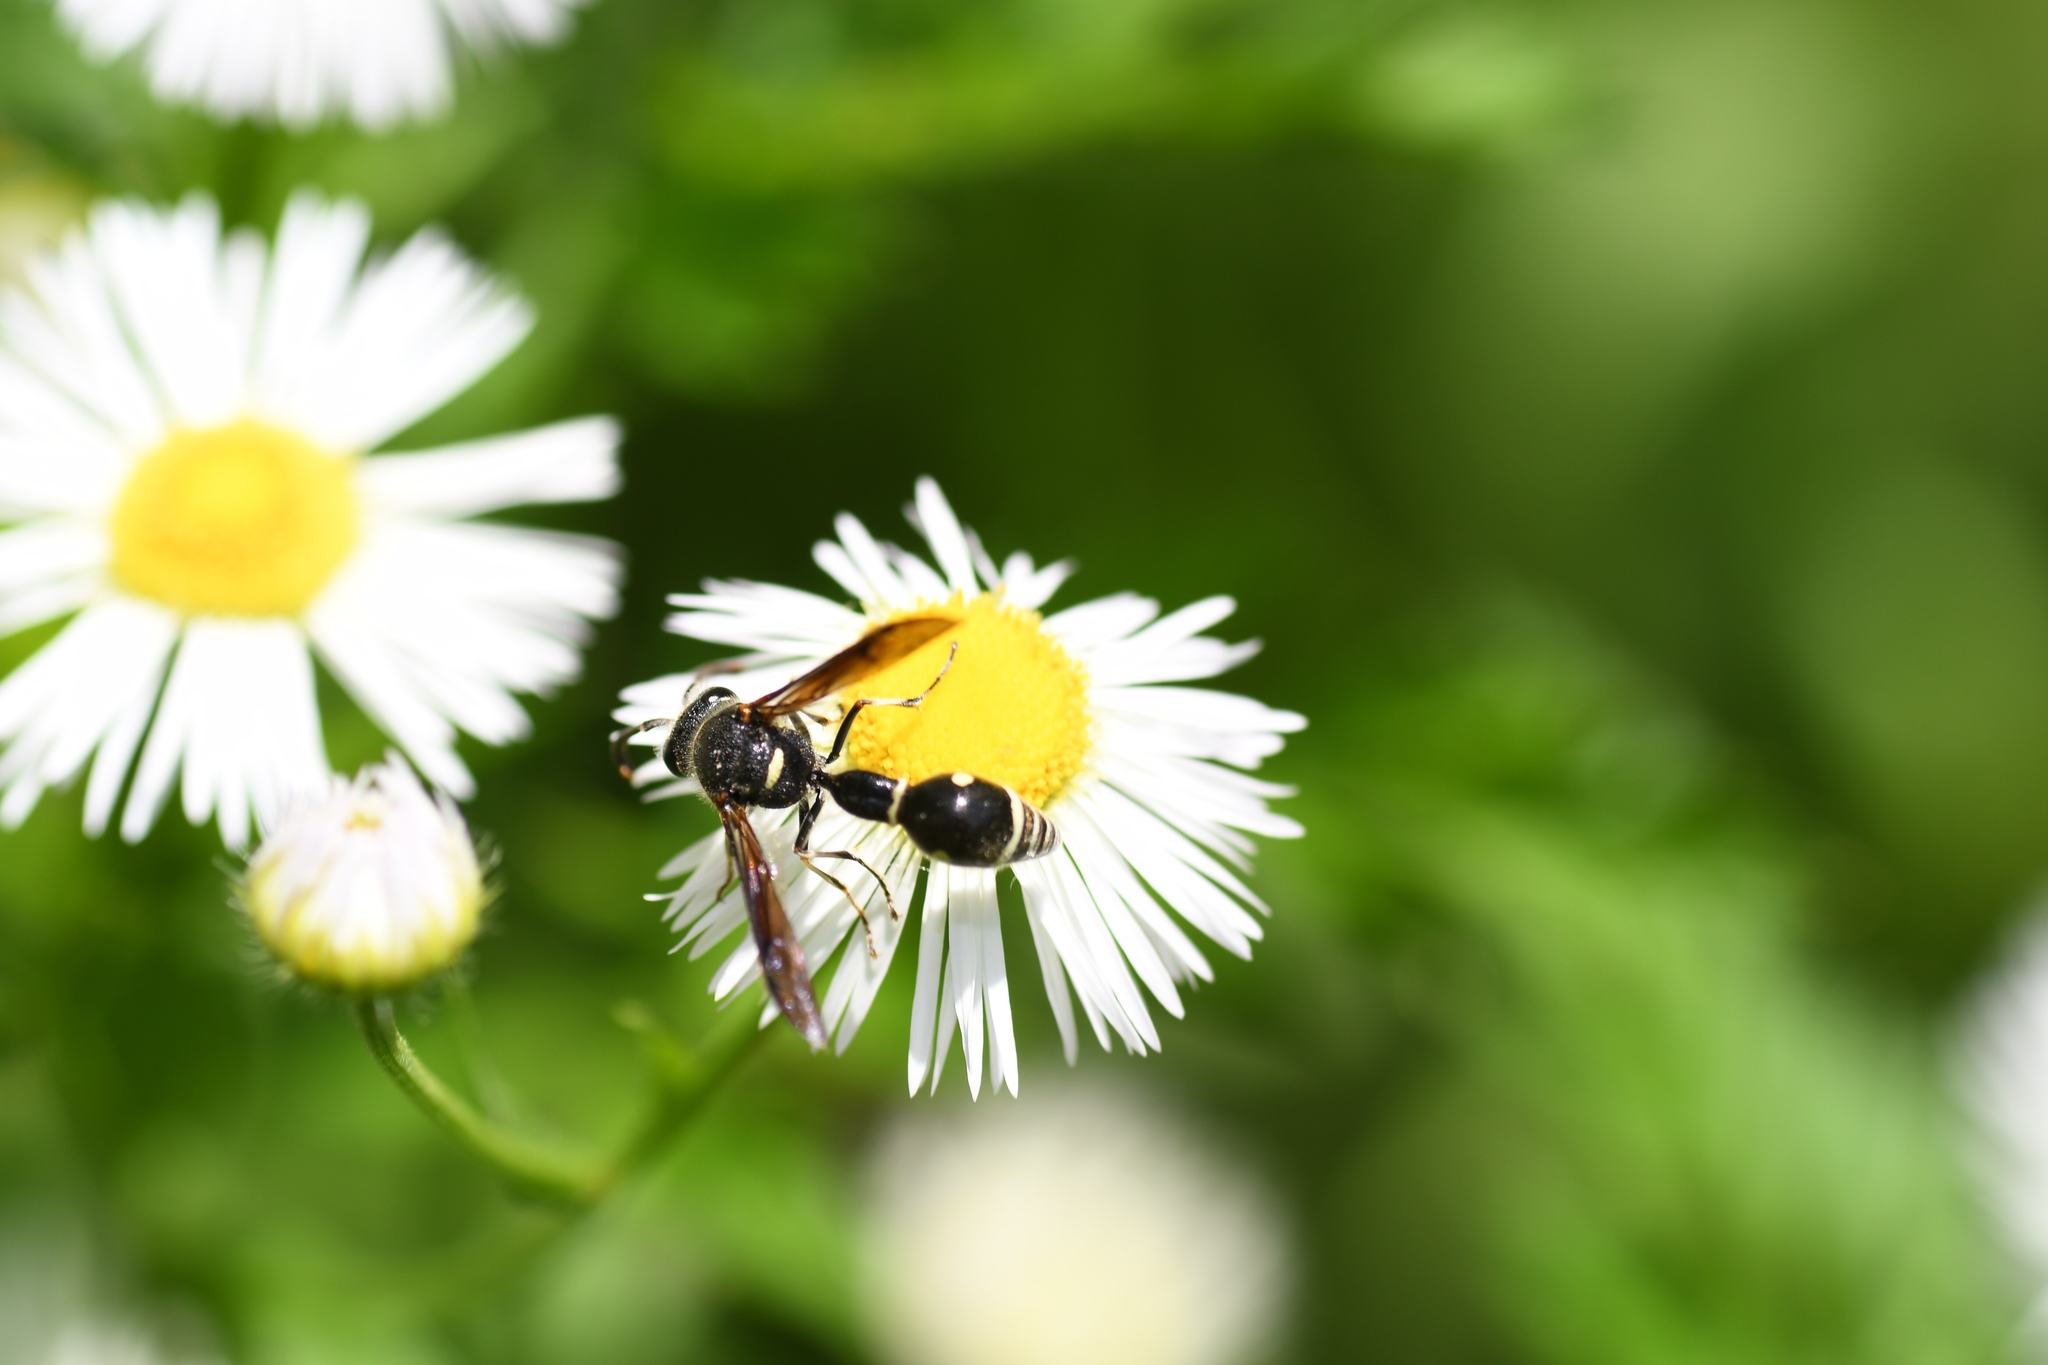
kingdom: Animalia
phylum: Arthropoda
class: Insecta
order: Hymenoptera
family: Vespidae
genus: Eumenes
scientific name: Eumenes fraternus
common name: Fraternal potter wasp
